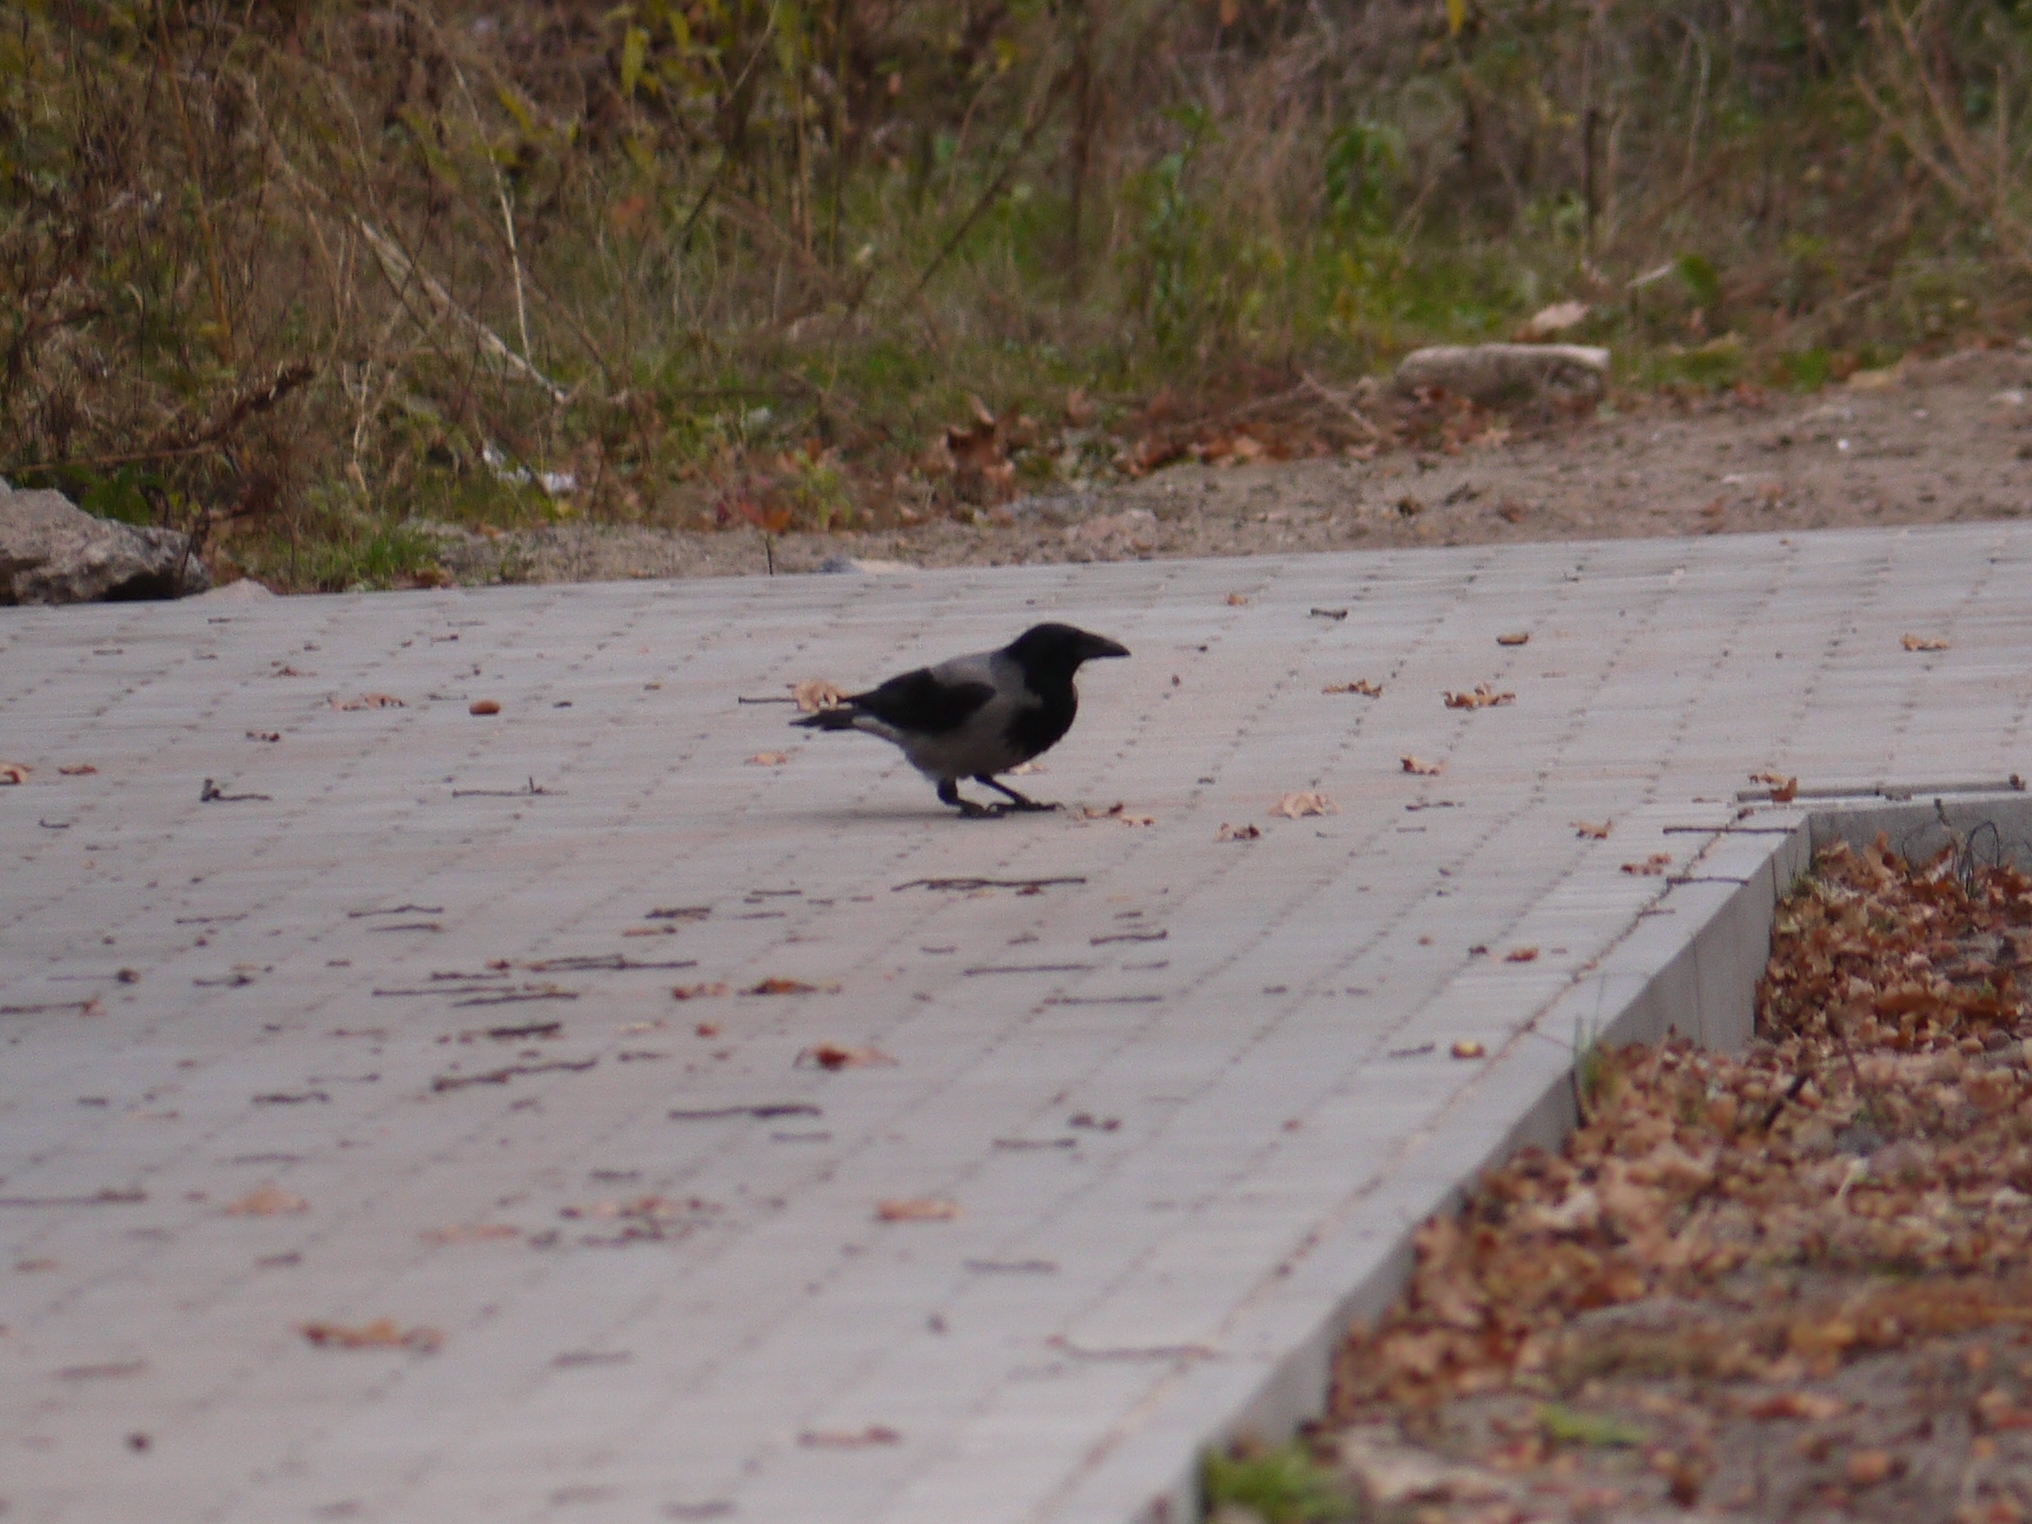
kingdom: Animalia
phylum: Chordata
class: Aves
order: Passeriformes
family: Corvidae
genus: Corvus
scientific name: Corvus cornix
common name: Hooded crow
